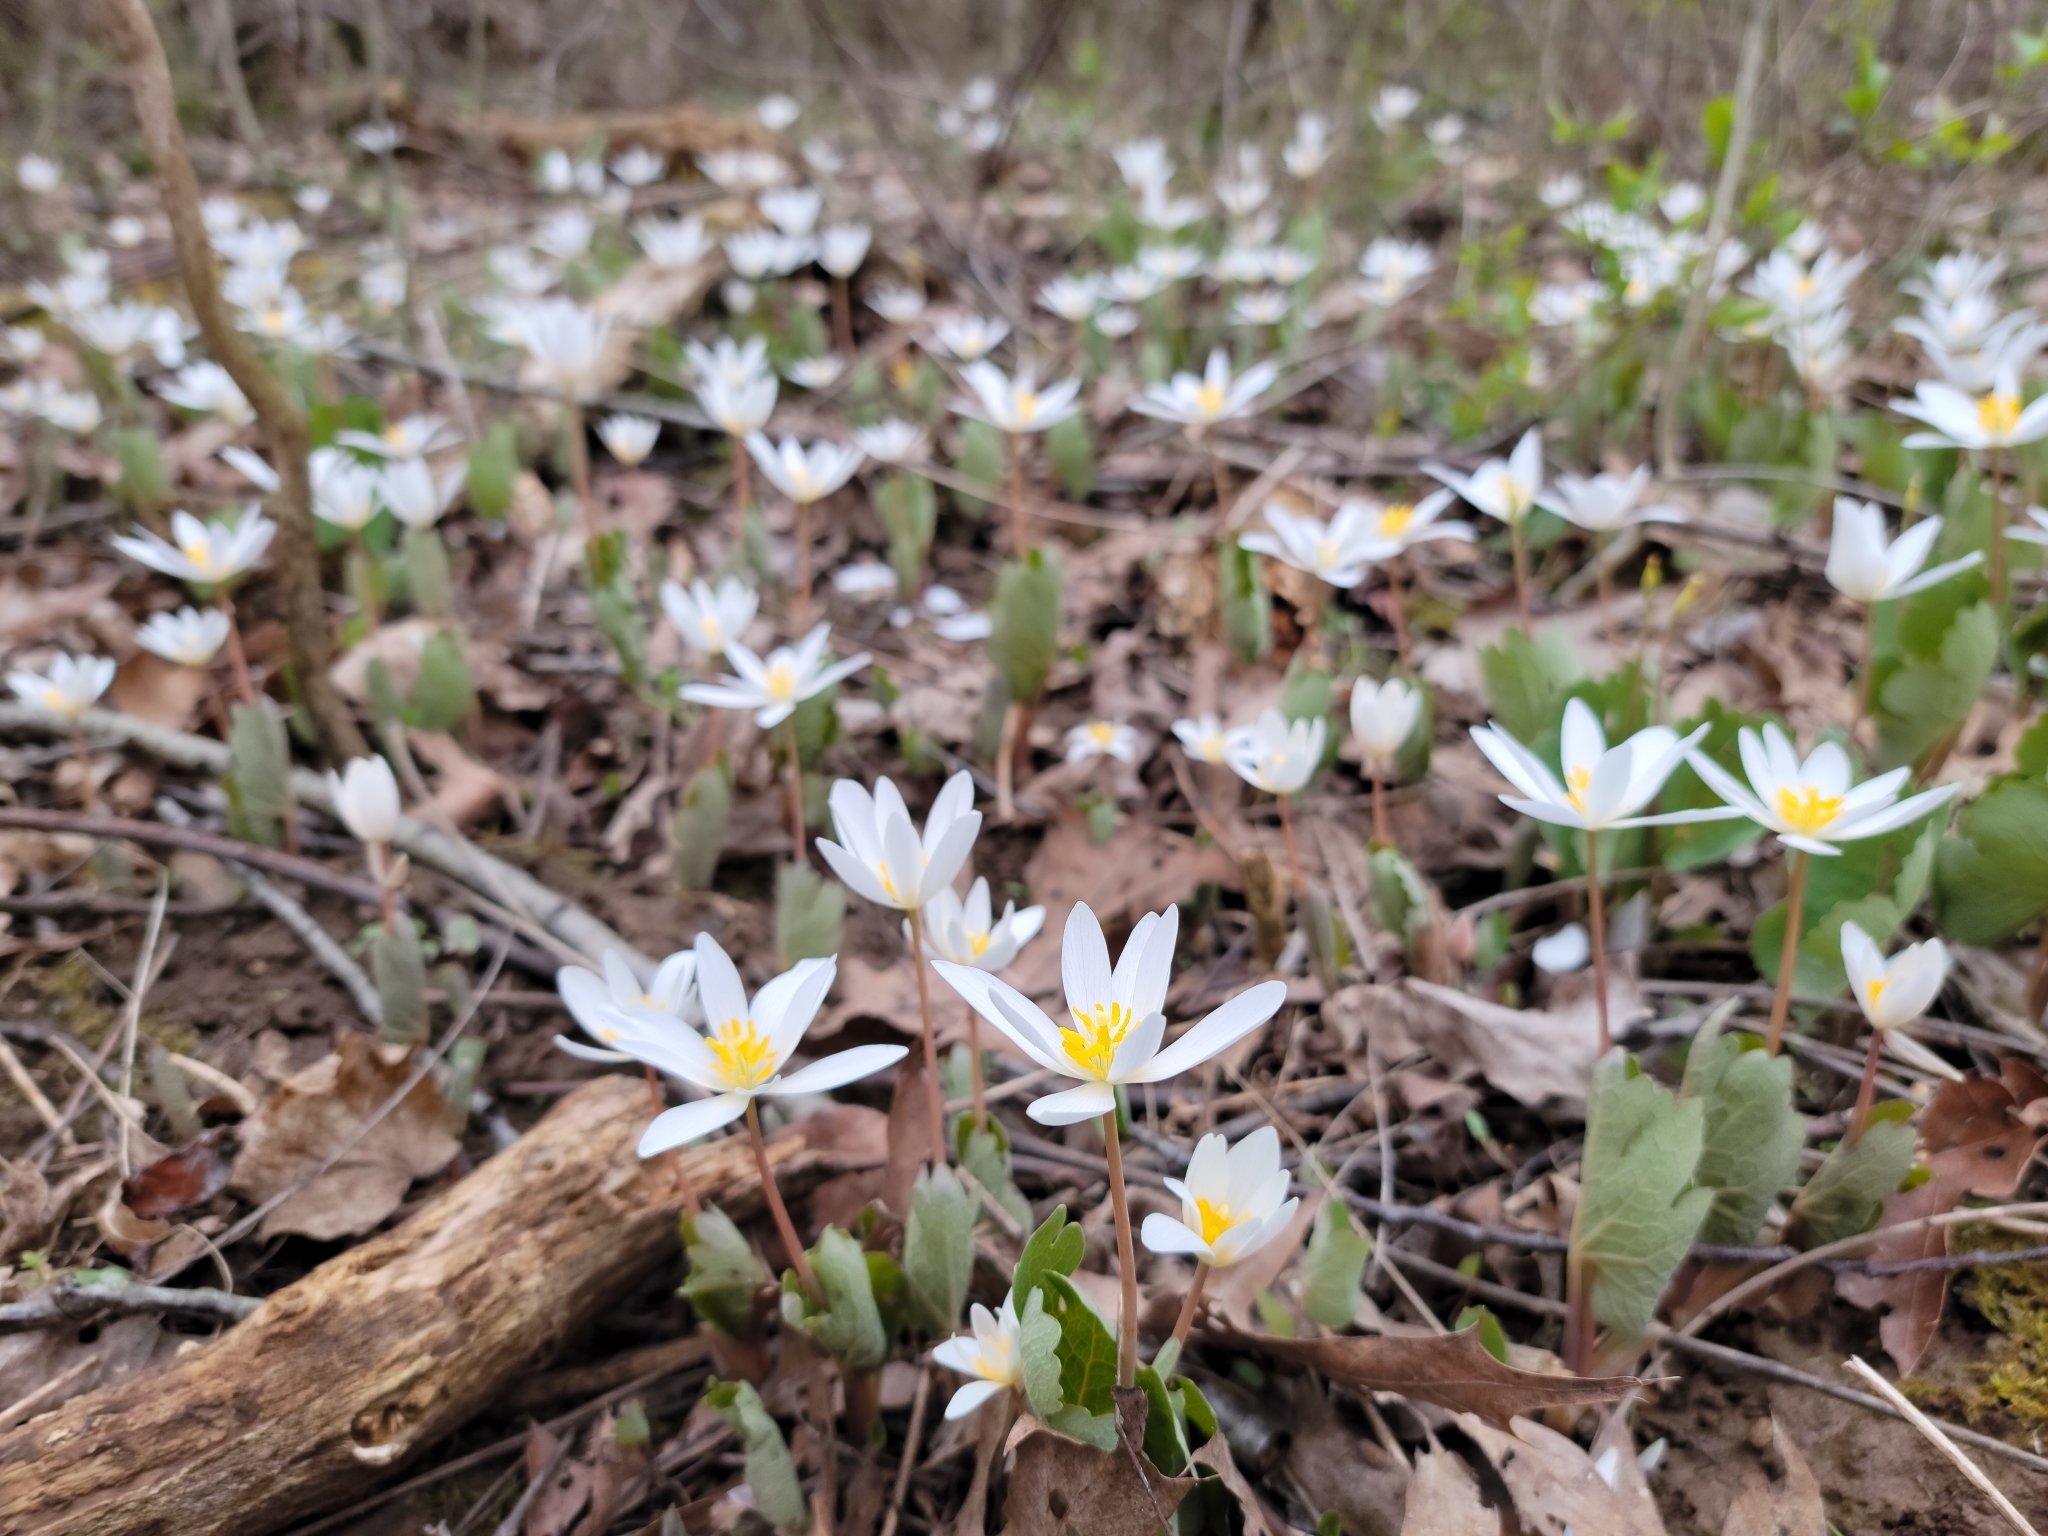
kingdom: Plantae
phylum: Tracheophyta
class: Magnoliopsida
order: Ranunculales
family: Papaveraceae
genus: Sanguinaria
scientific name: Sanguinaria canadensis
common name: Bloodroot
